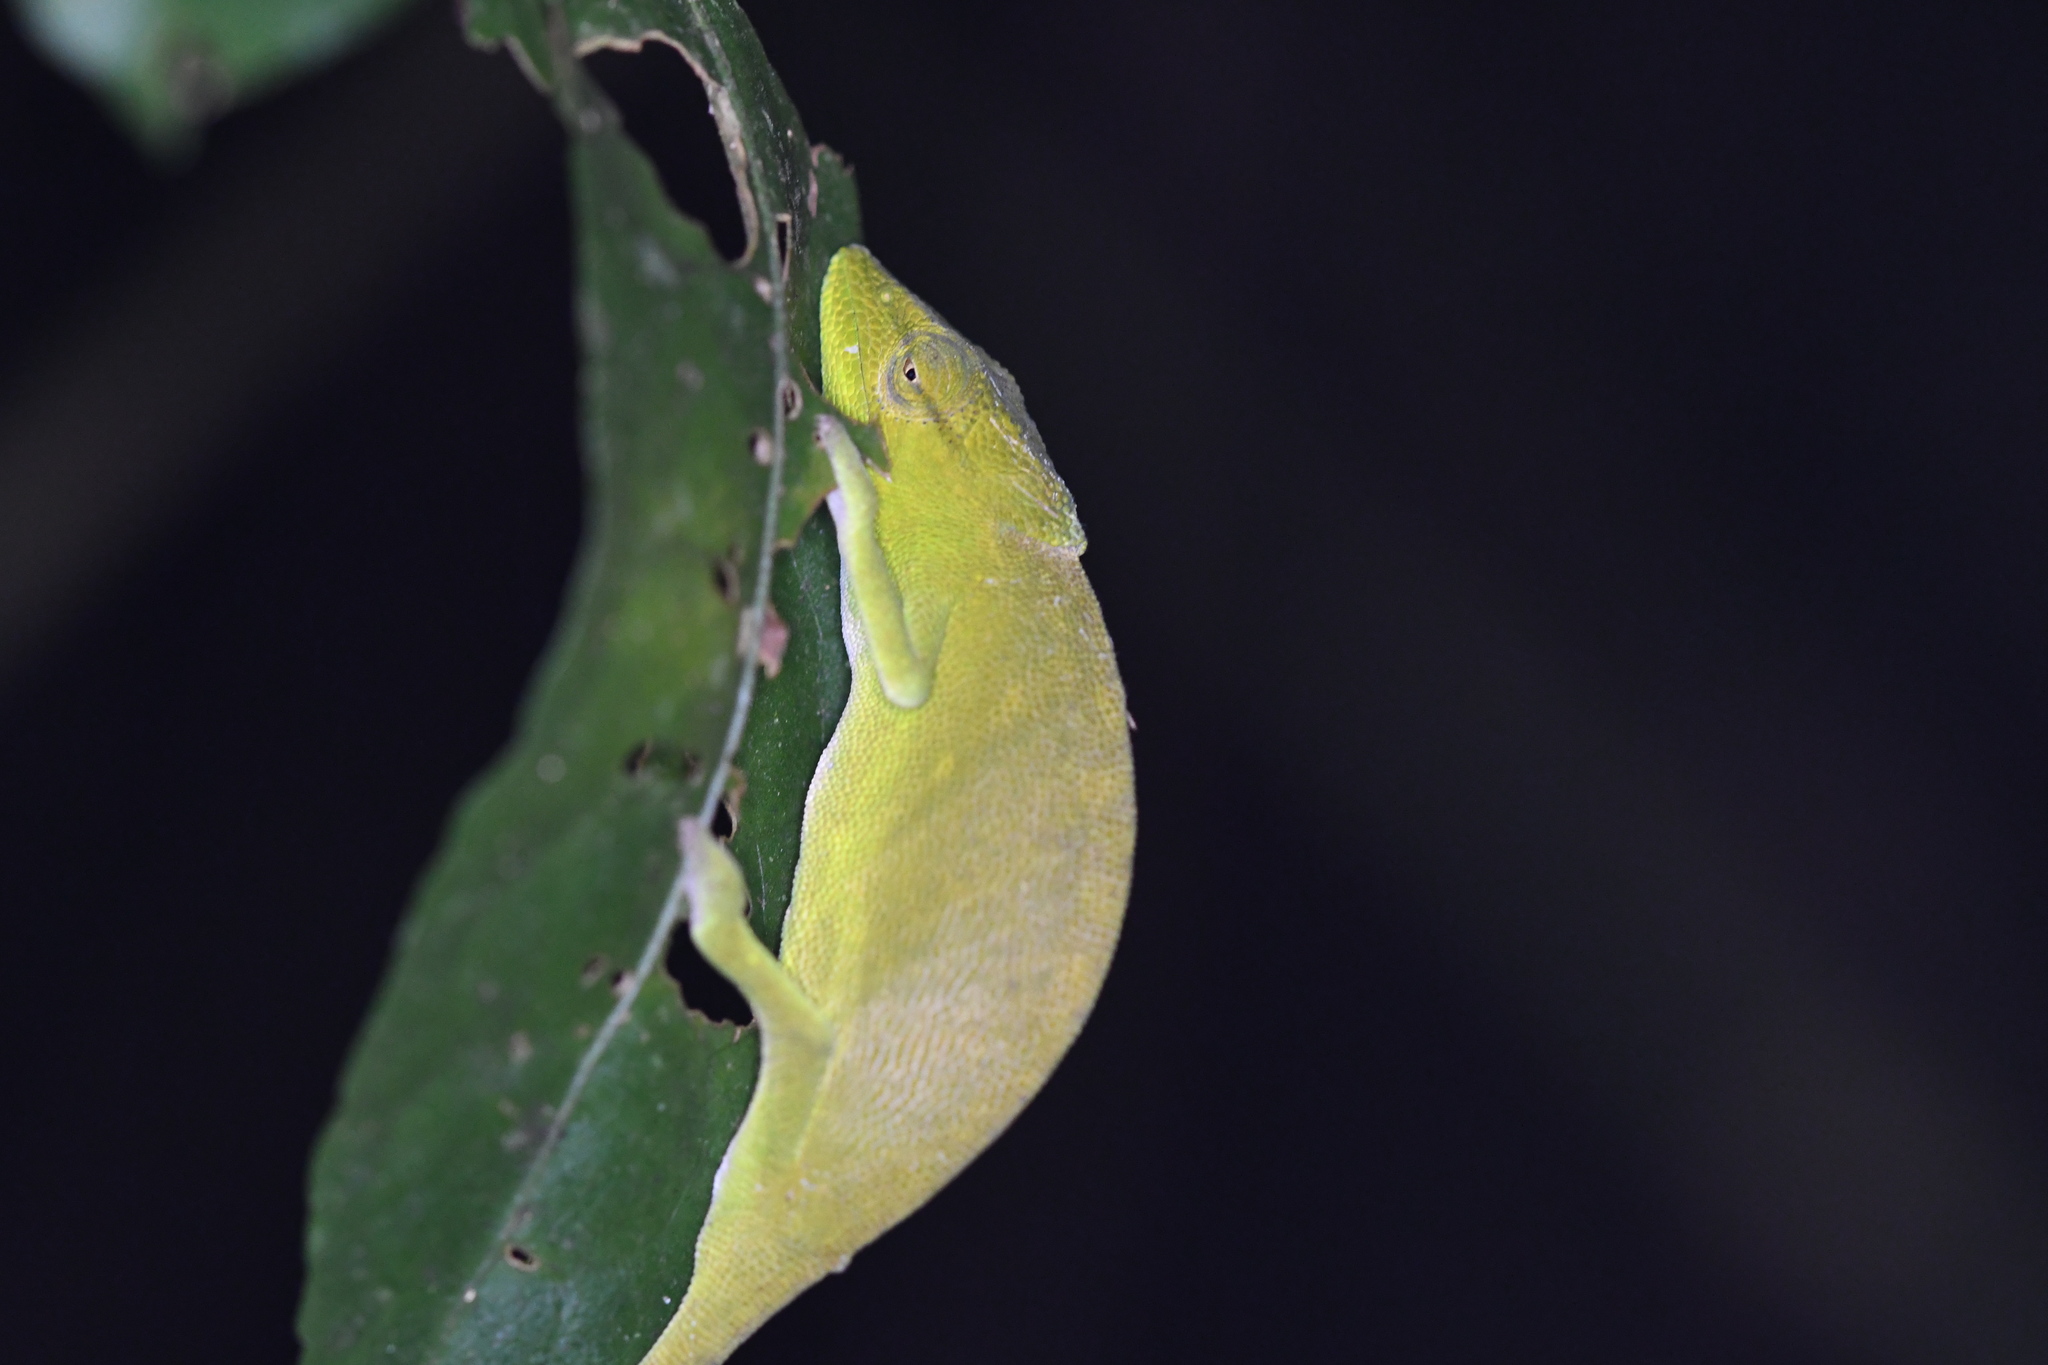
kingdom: Animalia
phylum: Chordata
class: Squamata
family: Chamaeleonidae
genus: Calumma
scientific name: Calumma glawi
